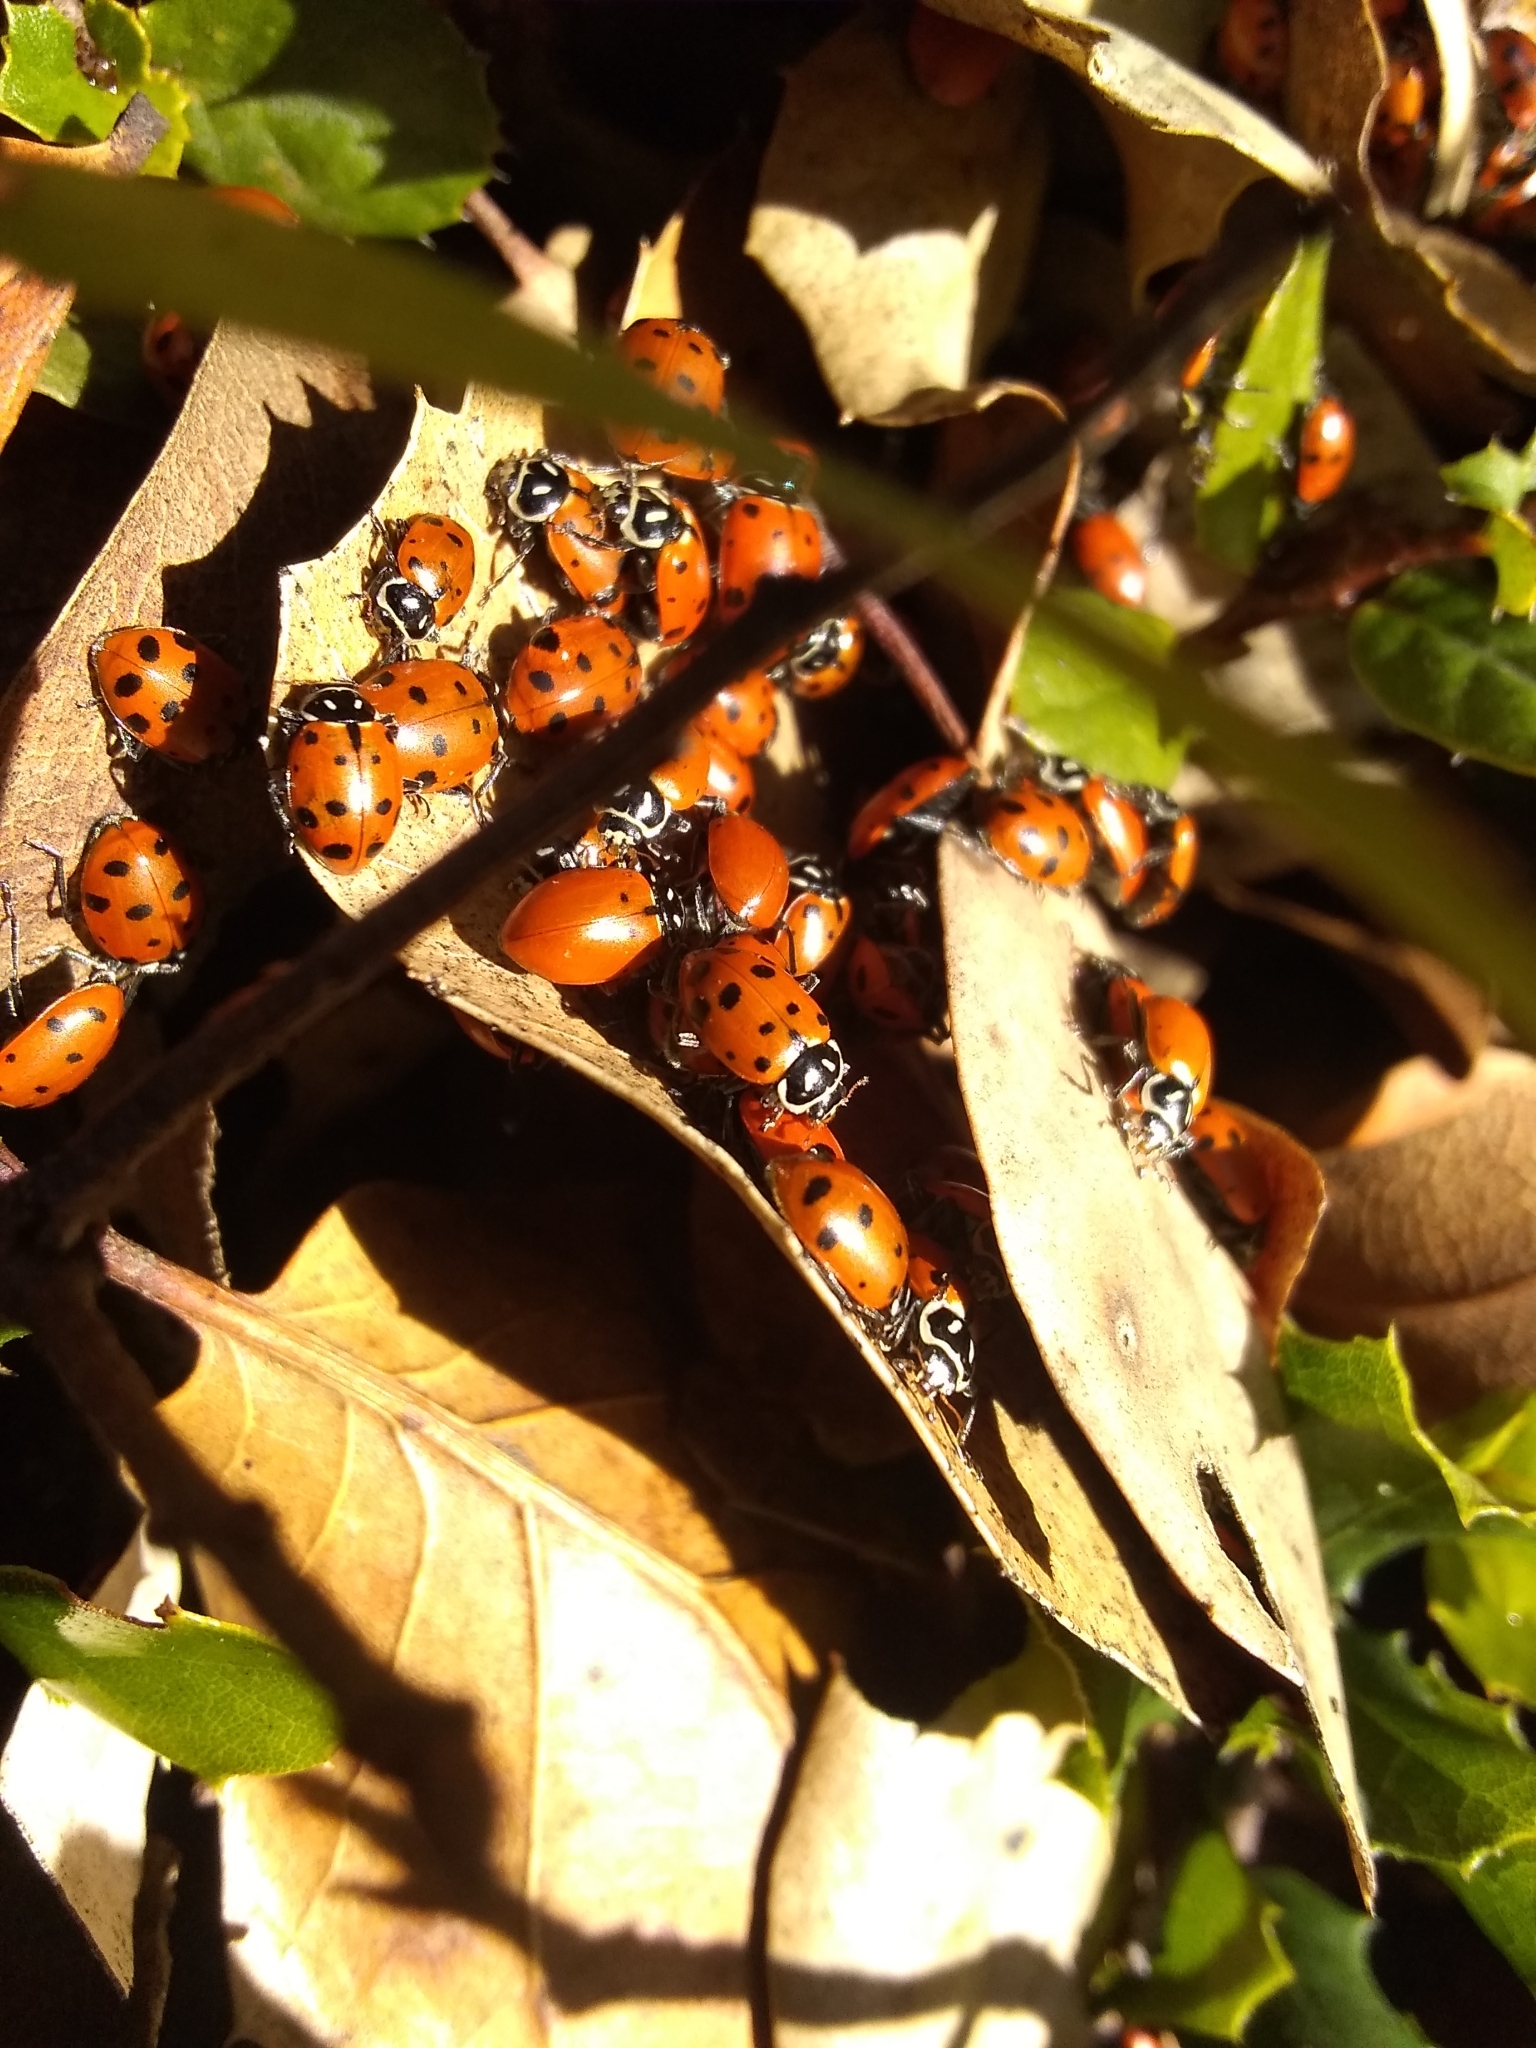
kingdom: Animalia
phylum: Arthropoda
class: Insecta
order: Coleoptera
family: Coccinellidae
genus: Hippodamia
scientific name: Hippodamia convergens
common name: Convergent lady beetle
